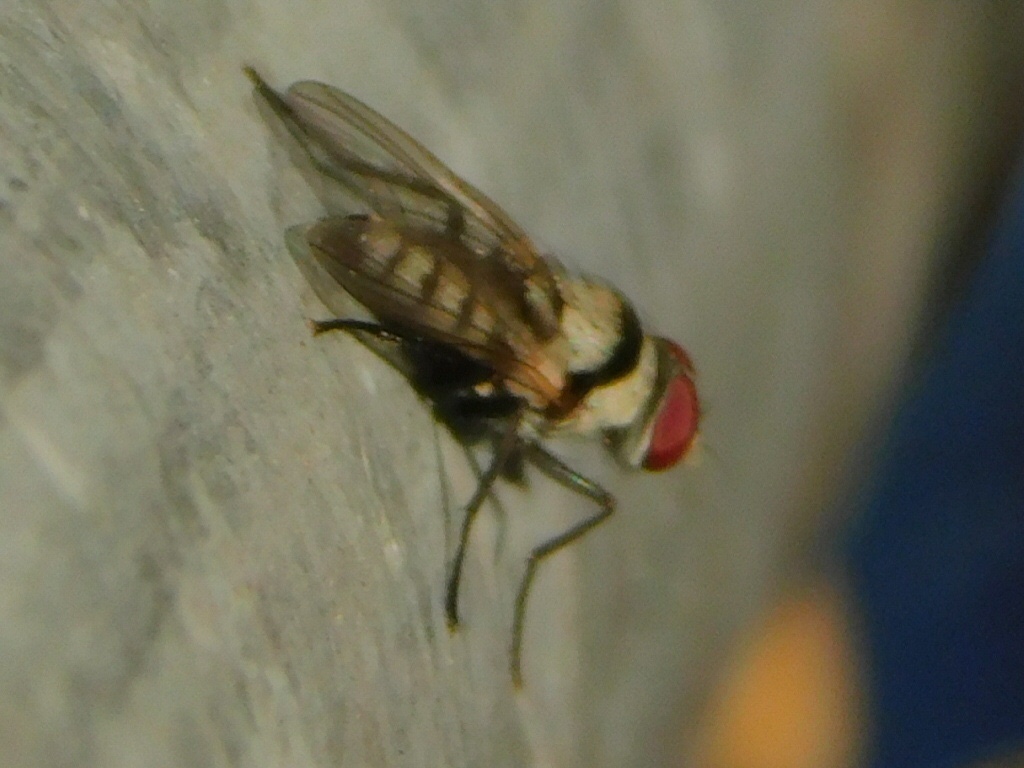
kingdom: Animalia
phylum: Arthropoda
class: Insecta
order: Diptera
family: Anthomyiidae
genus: Anthomyia
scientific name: Anthomyia illocata
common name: Fly
